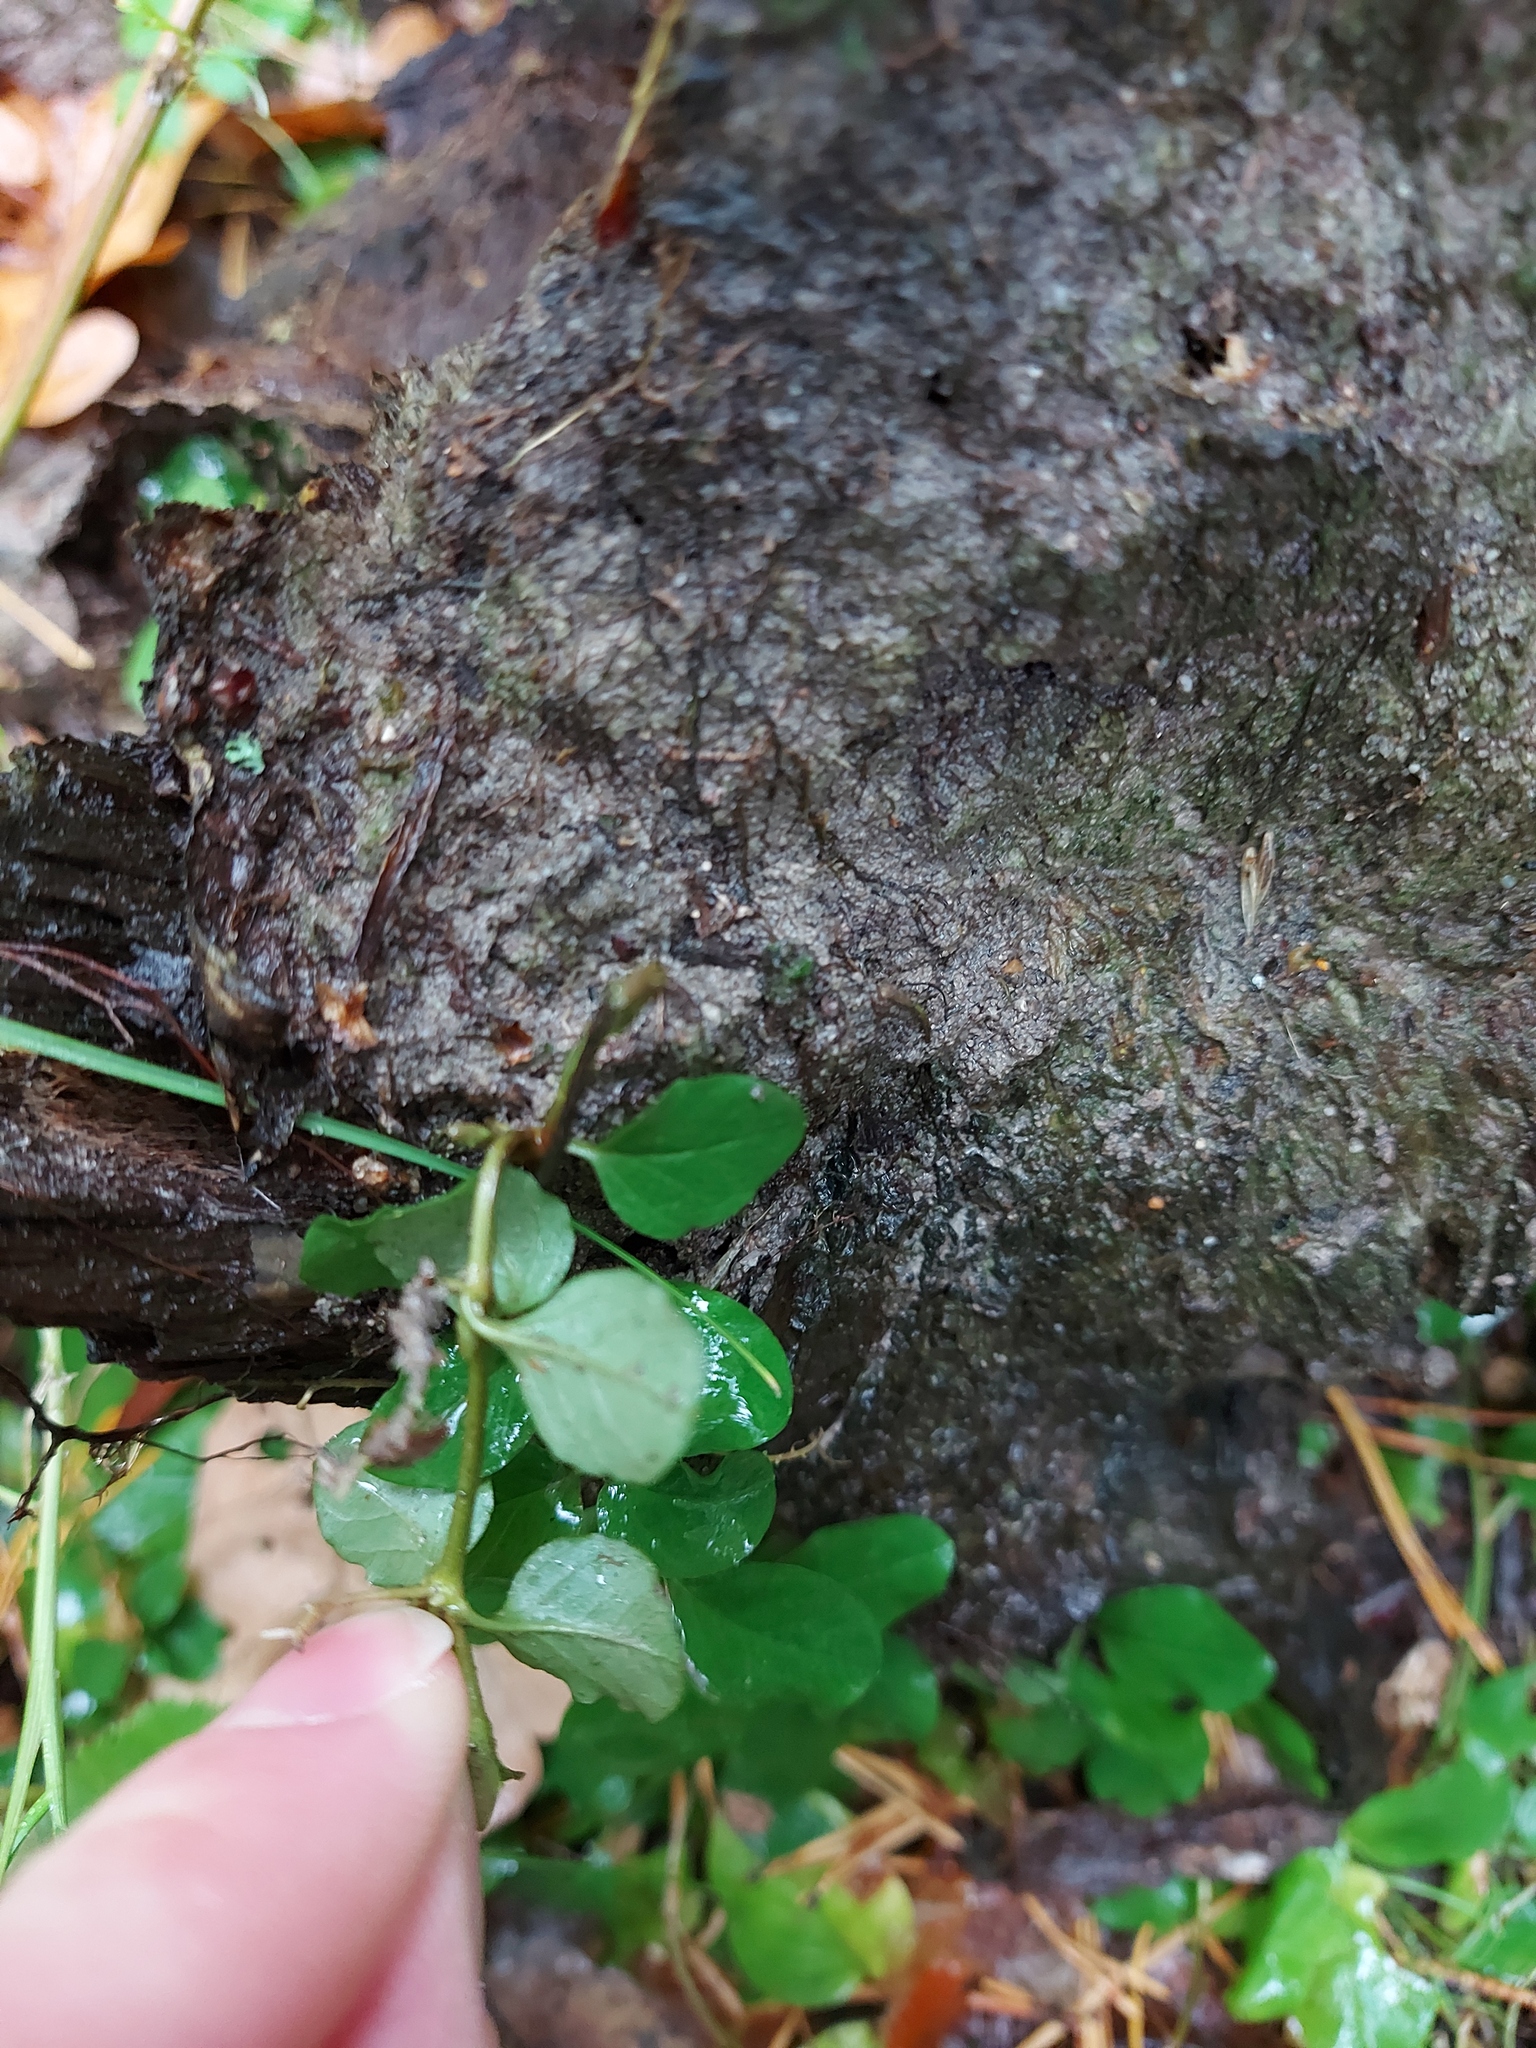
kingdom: Plantae
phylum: Tracheophyta
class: Magnoliopsida
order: Ericales
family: Primulaceae
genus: Lysimachia
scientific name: Lysimachia nummularia
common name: Moneywort
